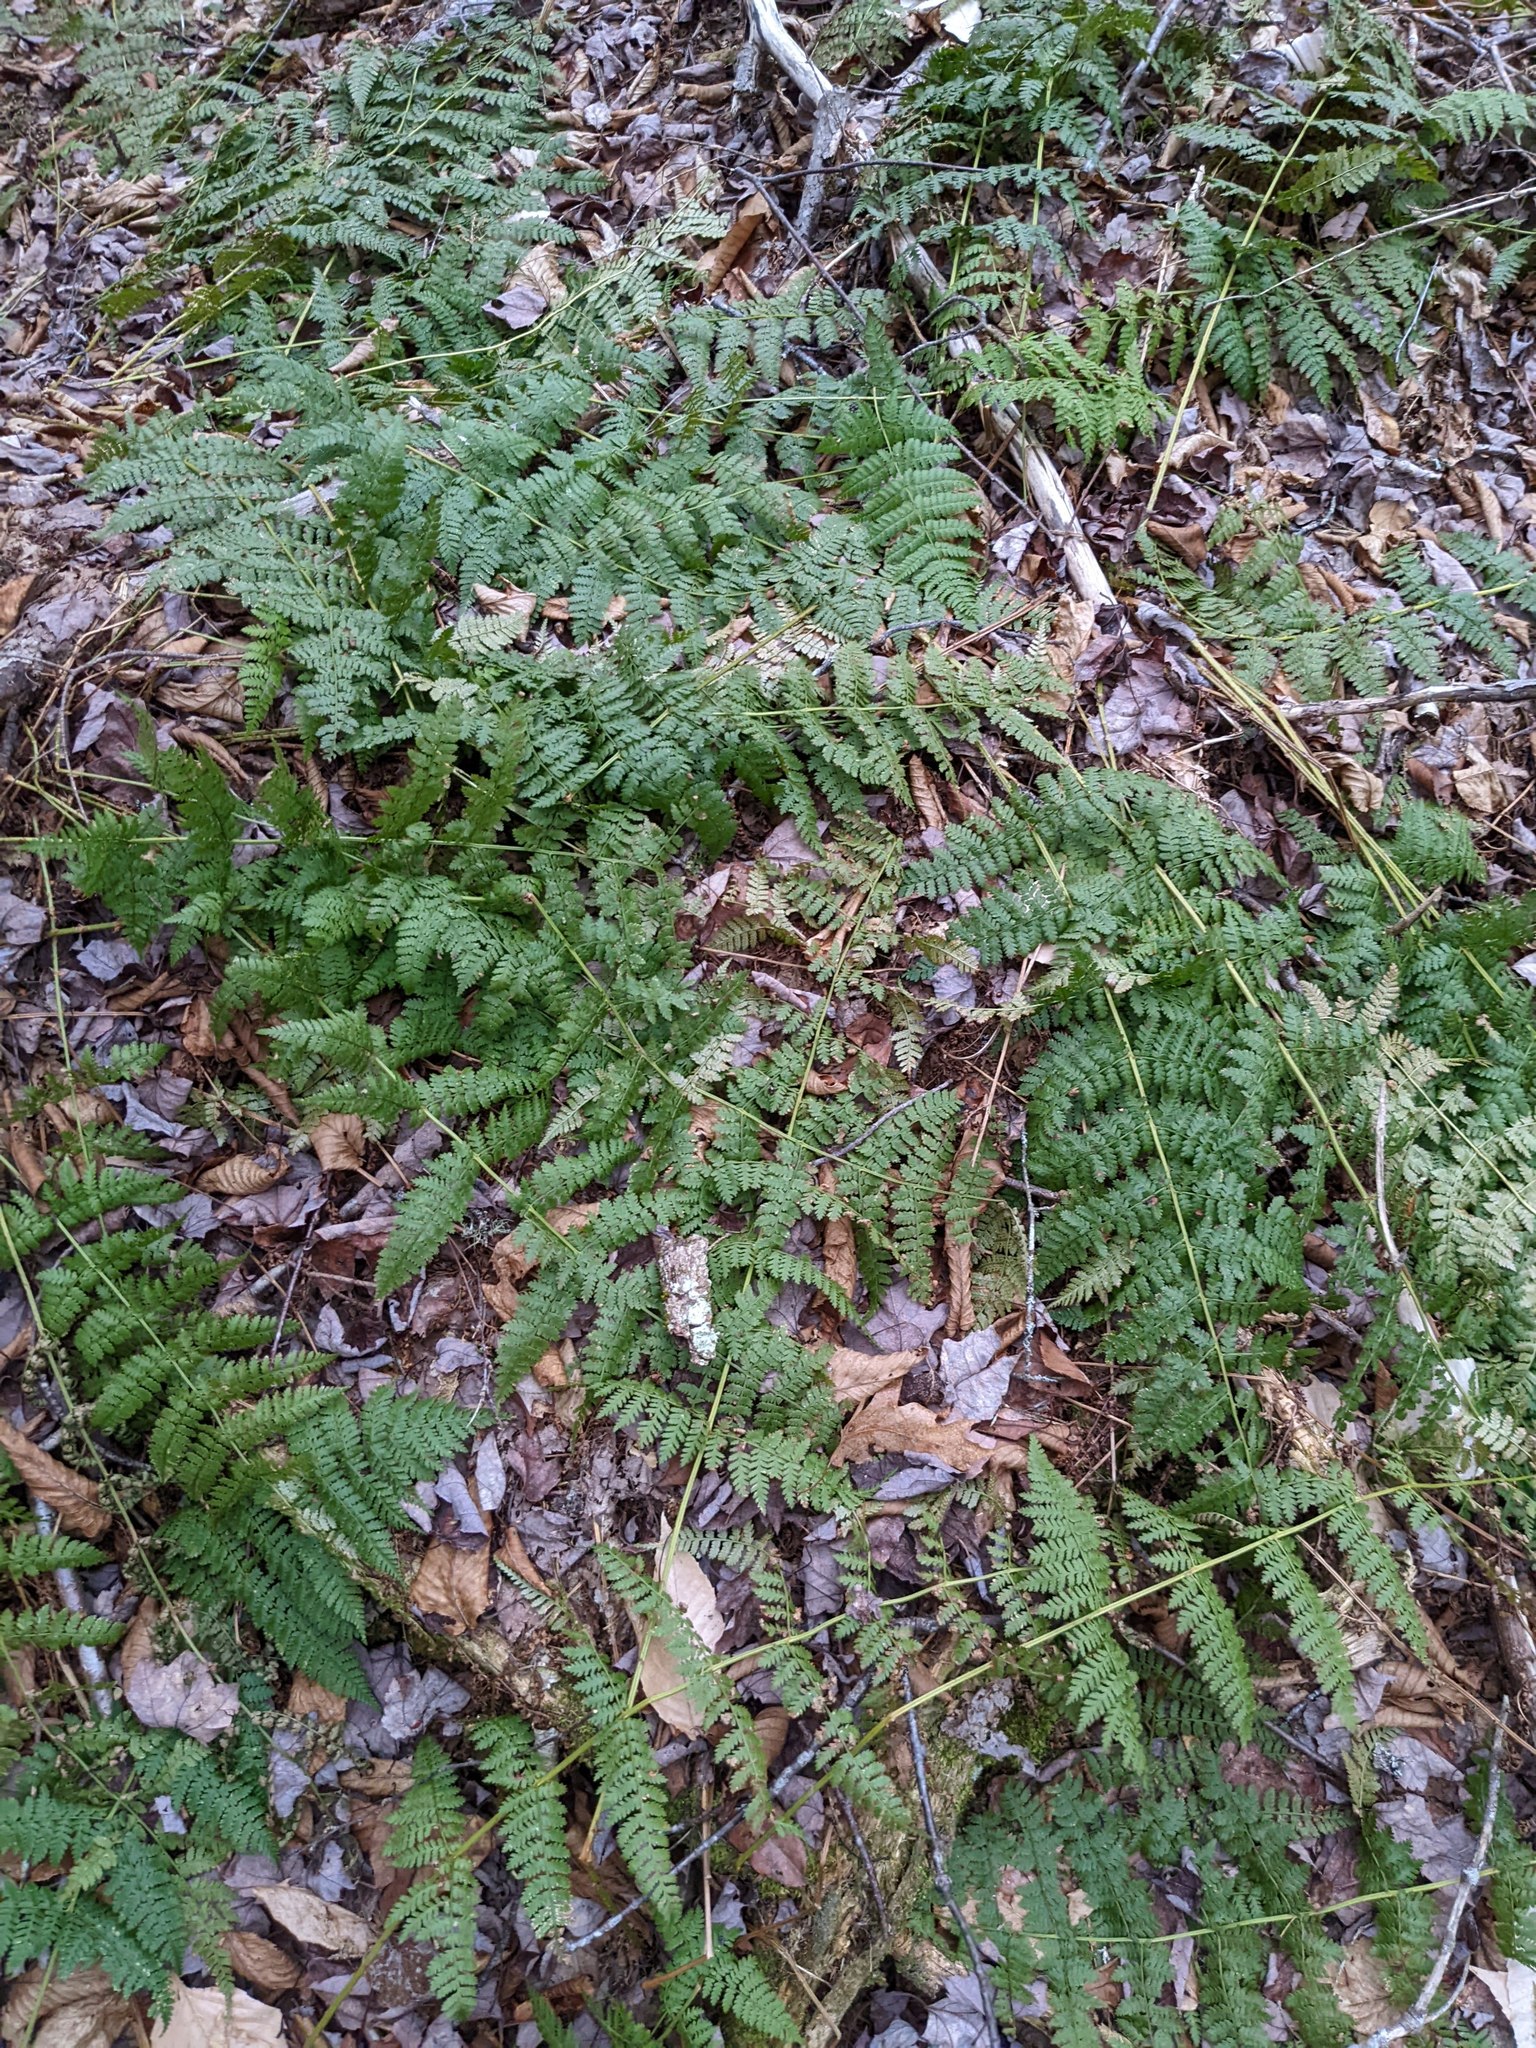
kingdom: Plantae
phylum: Tracheophyta
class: Polypodiopsida
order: Polypodiales
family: Dryopteridaceae
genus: Dryopteris
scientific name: Dryopteris intermedia
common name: Evergreen wood fern
